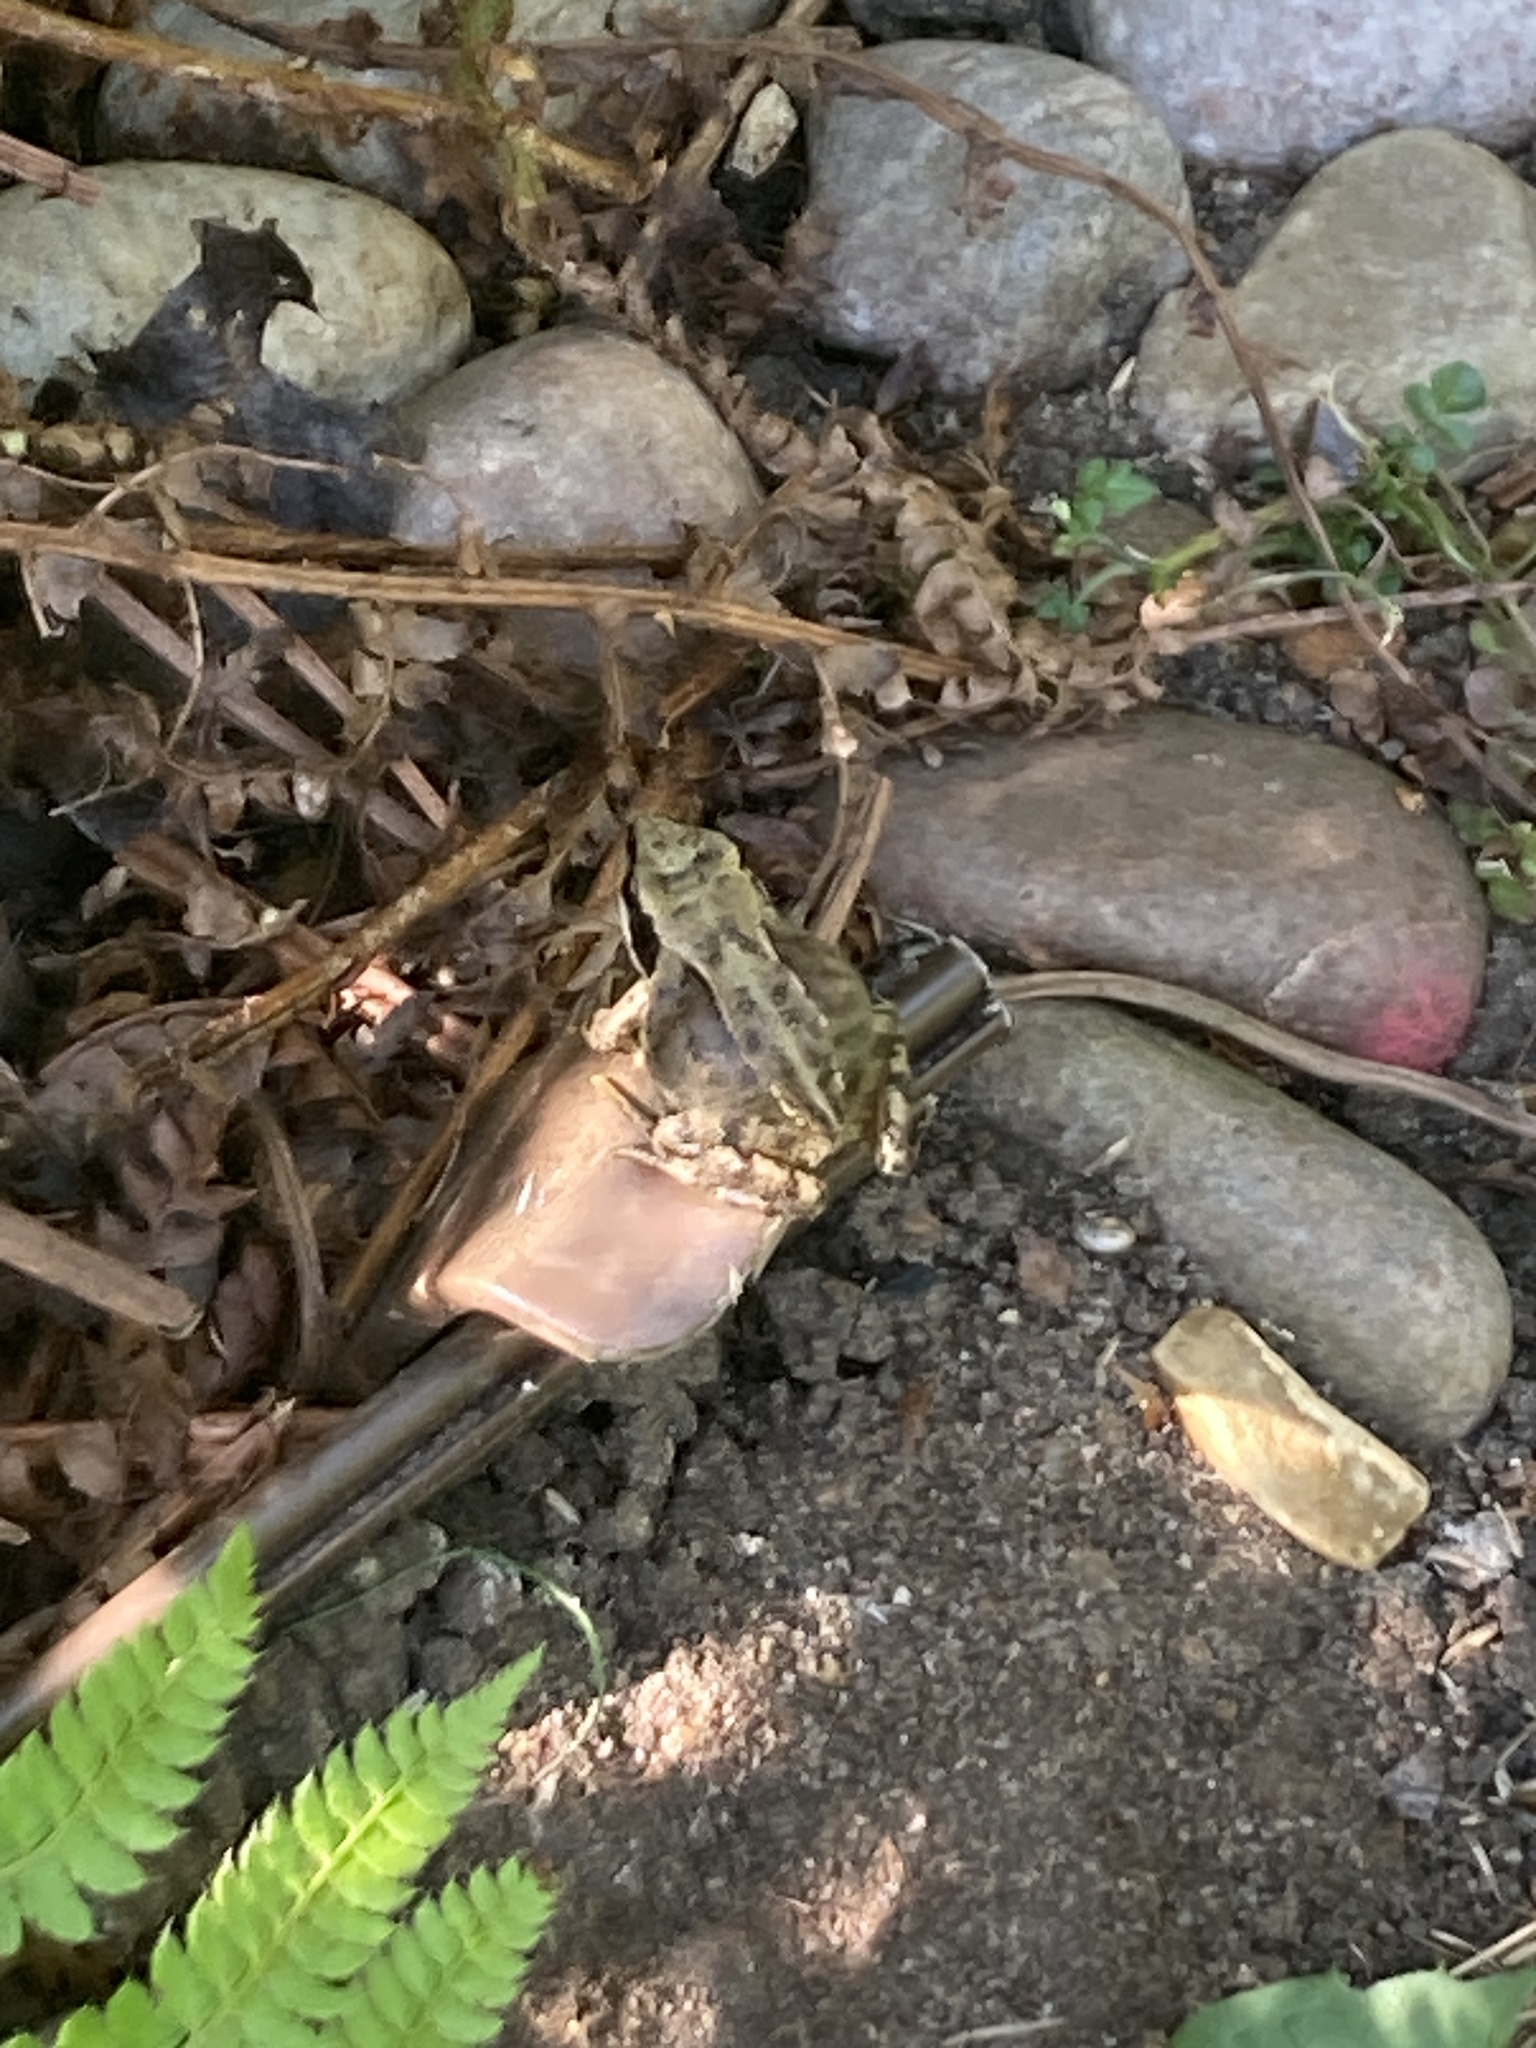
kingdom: Animalia
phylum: Chordata
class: Amphibia
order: Anura
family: Ranidae
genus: Rana
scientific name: Rana temporaria
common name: Common frog
